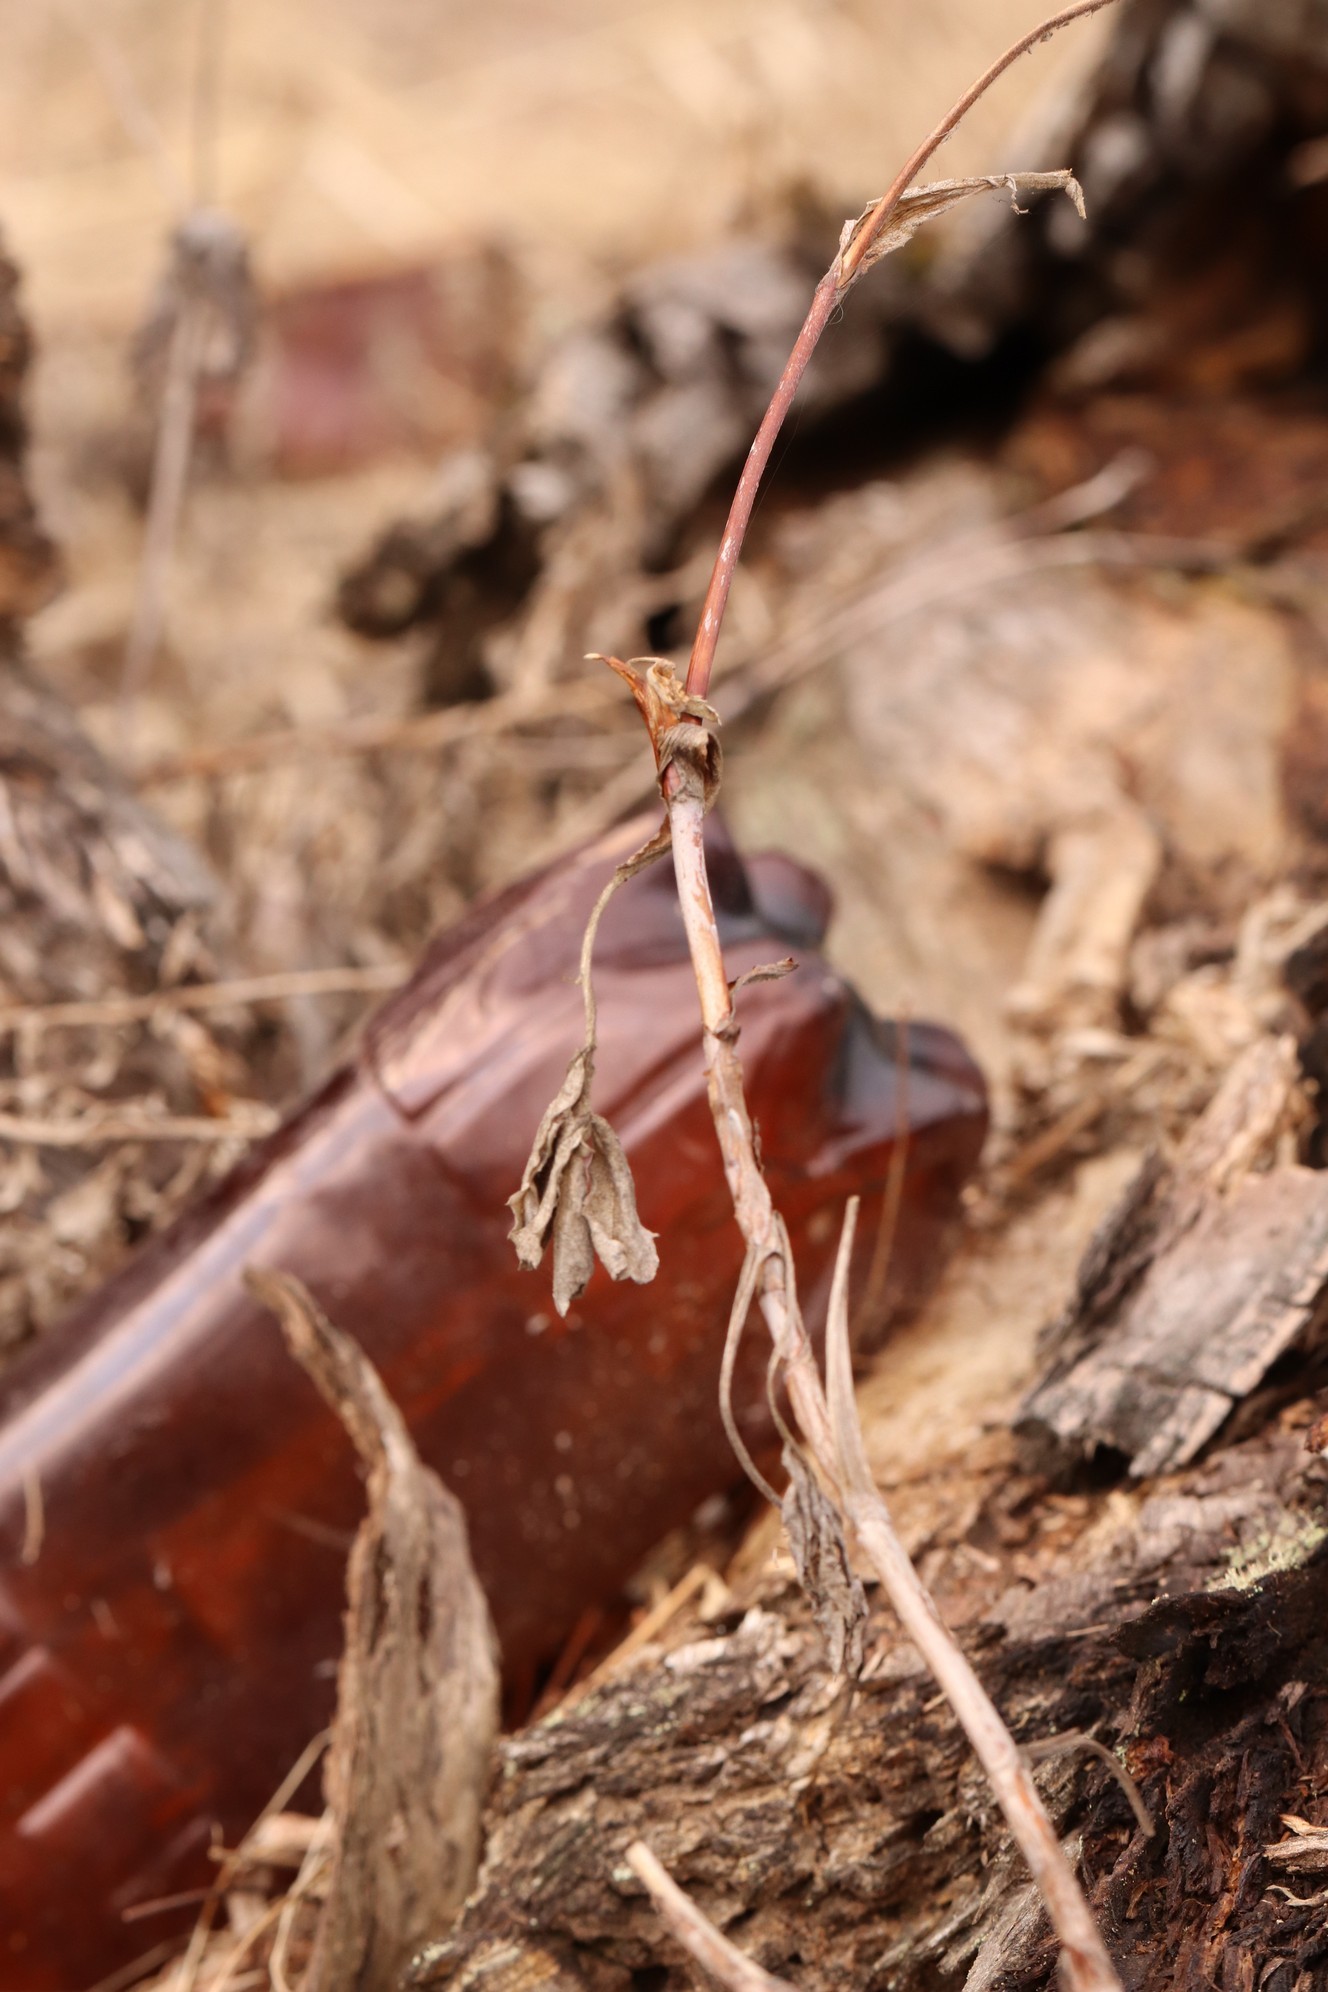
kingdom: Plantae
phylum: Tracheophyta
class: Magnoliopsida
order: Rosales
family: Rosaceae
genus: Comarum
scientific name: Comarum palustre
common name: Marsh cinquefoil
